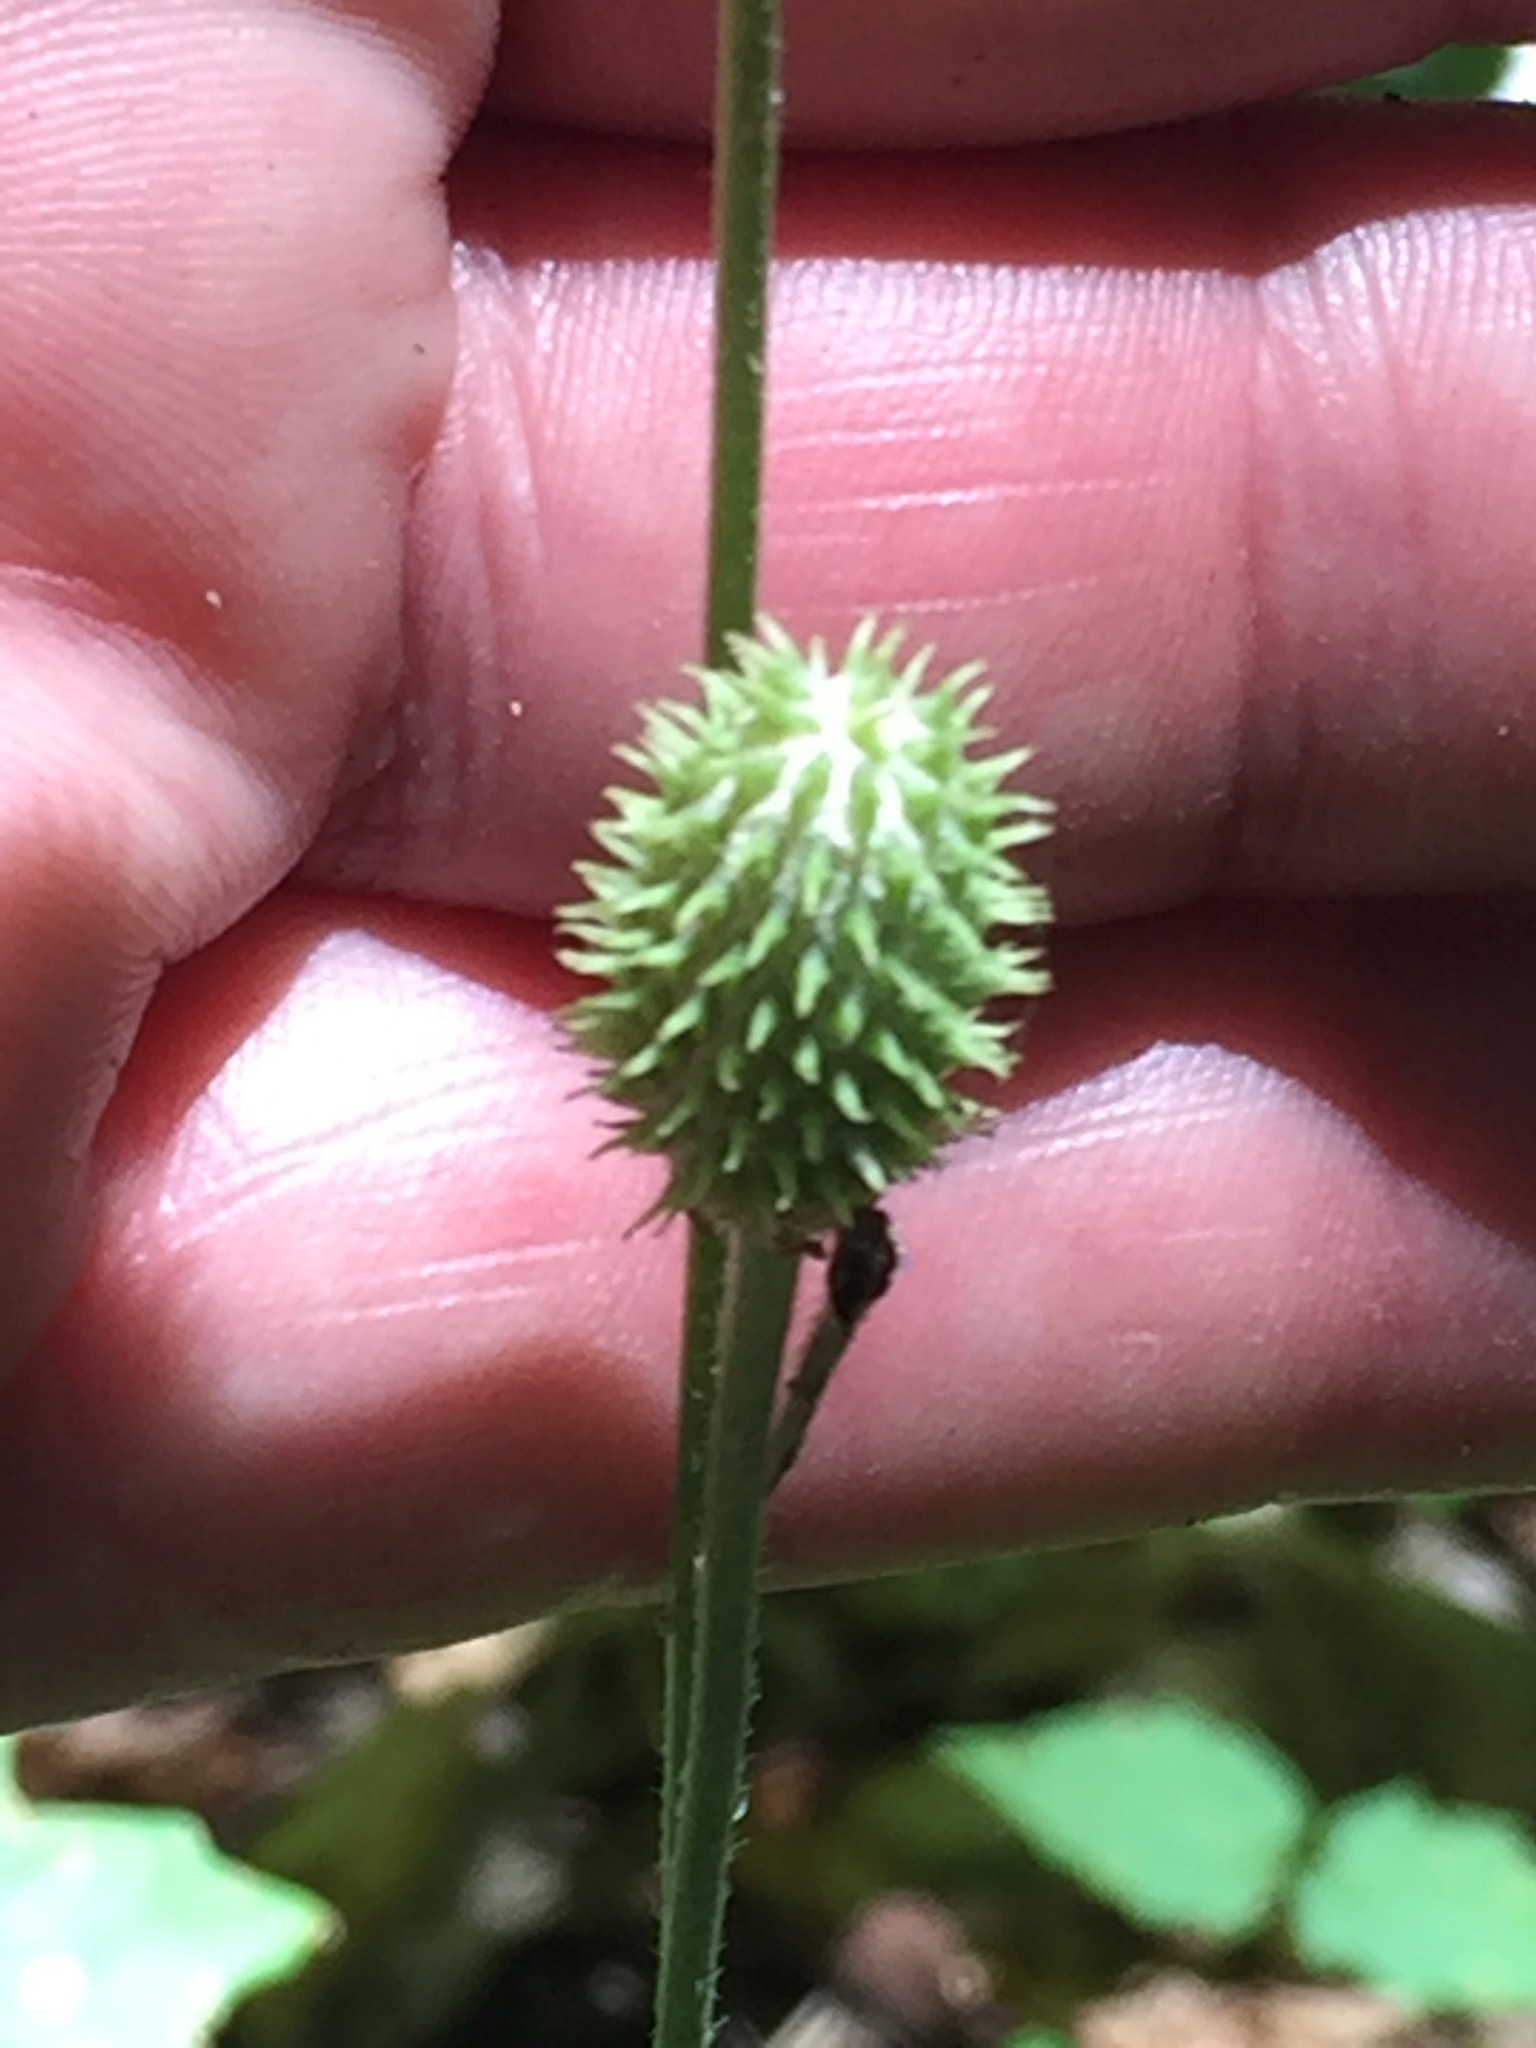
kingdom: Plantae
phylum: Tracheophyta
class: Magnoliopsida
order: Ranunculales
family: Ranunculaceae
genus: Anemone
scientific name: Anemone virginiana
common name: Tall anemone
